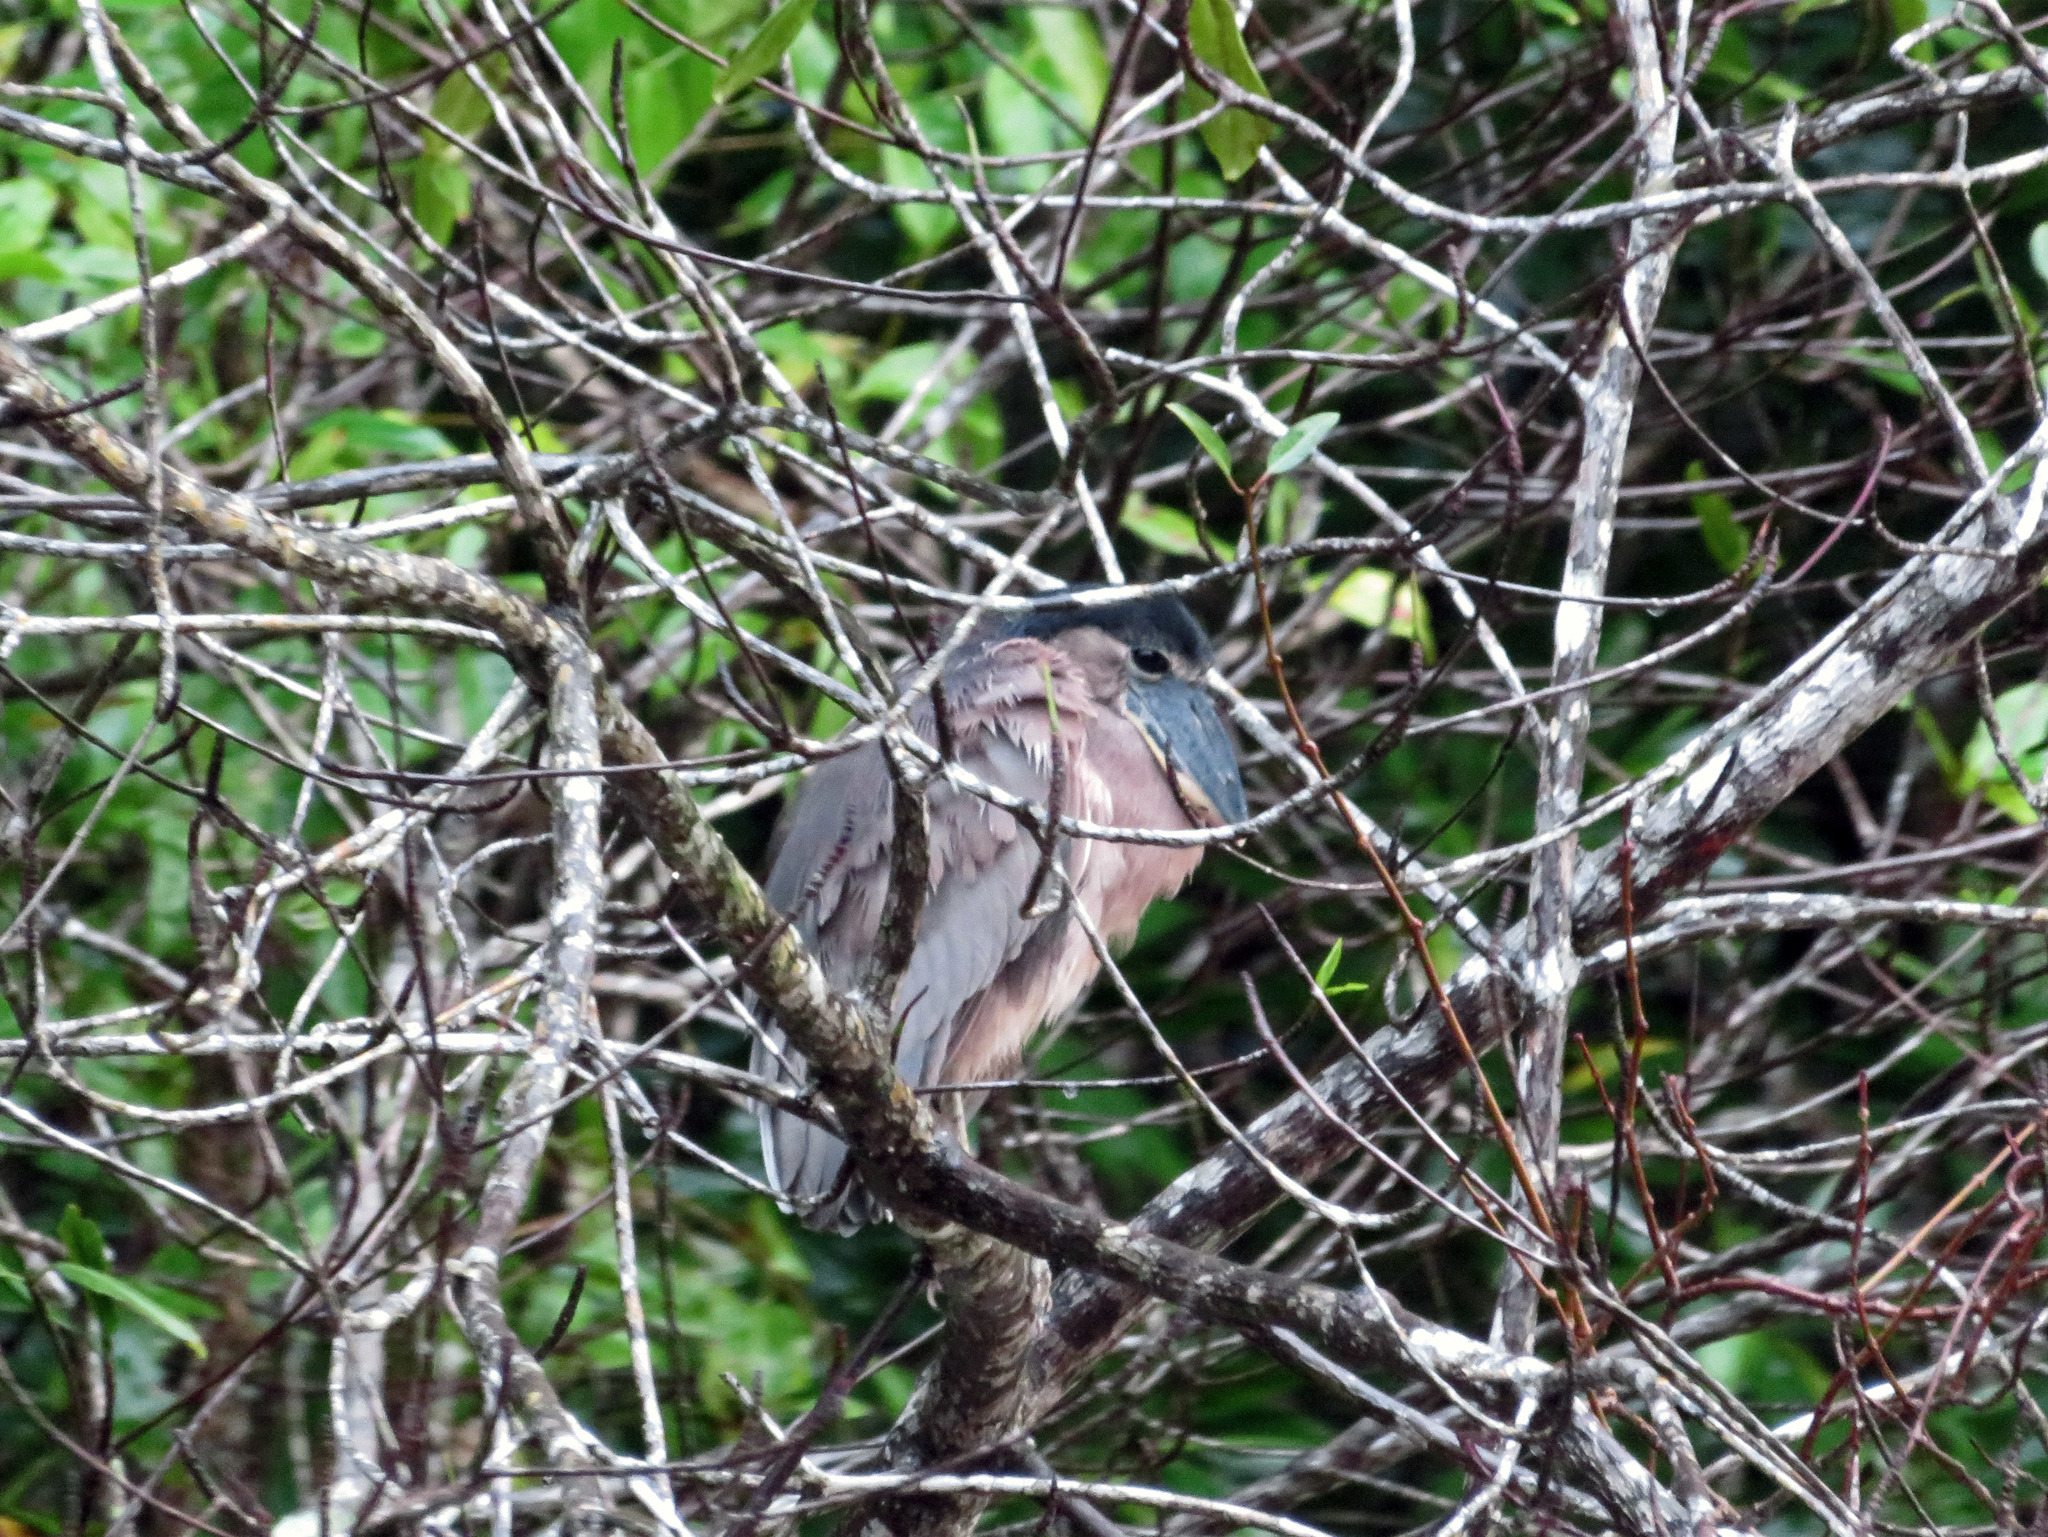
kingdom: Animalia
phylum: Chordata
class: Aves
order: Pelecaniformes
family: Ardeidae
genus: Cochlearius
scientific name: Cochlearius cochlearius
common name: Boat-billed heron
